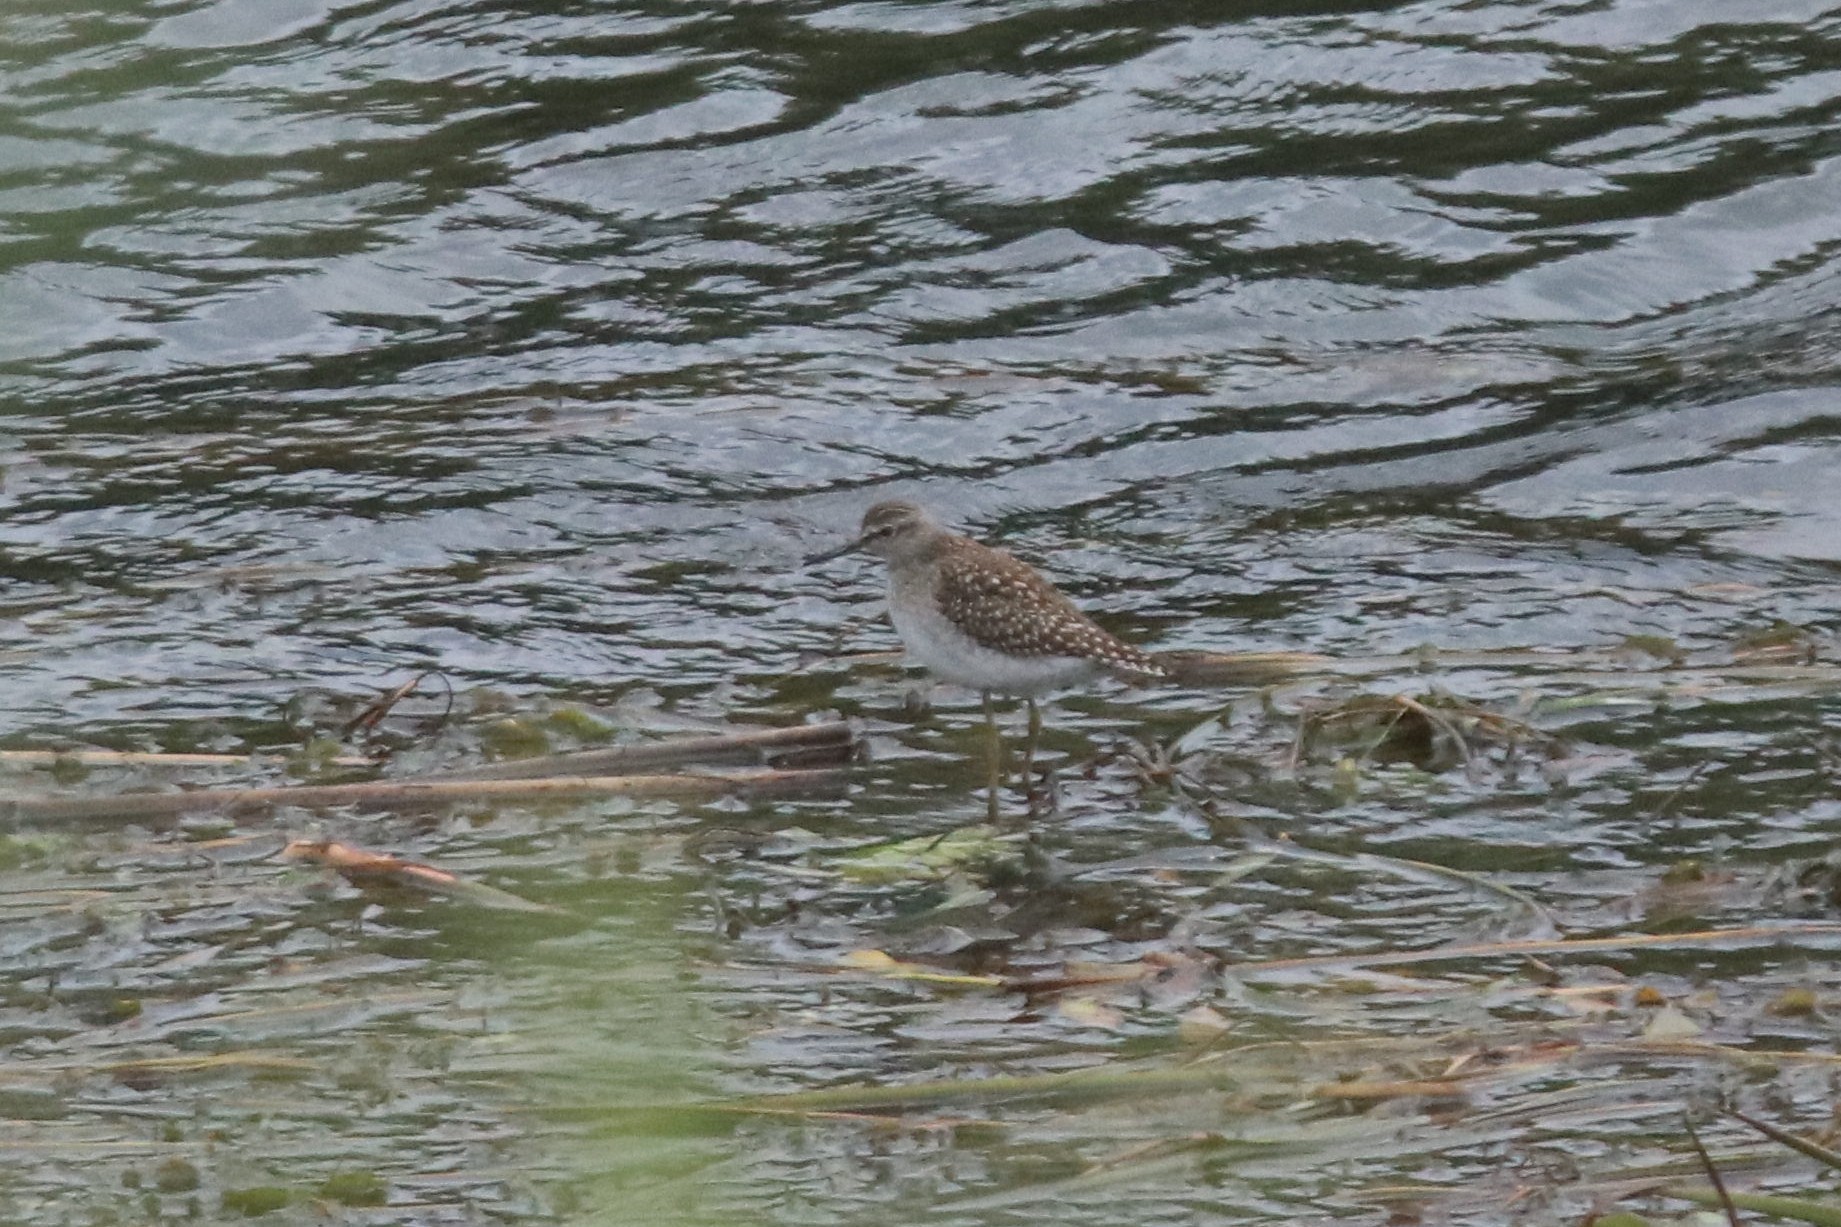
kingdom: Animalia
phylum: Chordata
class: Aves
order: Charadriiformes
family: Scolopacidae
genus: Tringa
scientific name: Tringa glareola
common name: Wood sandpiper
